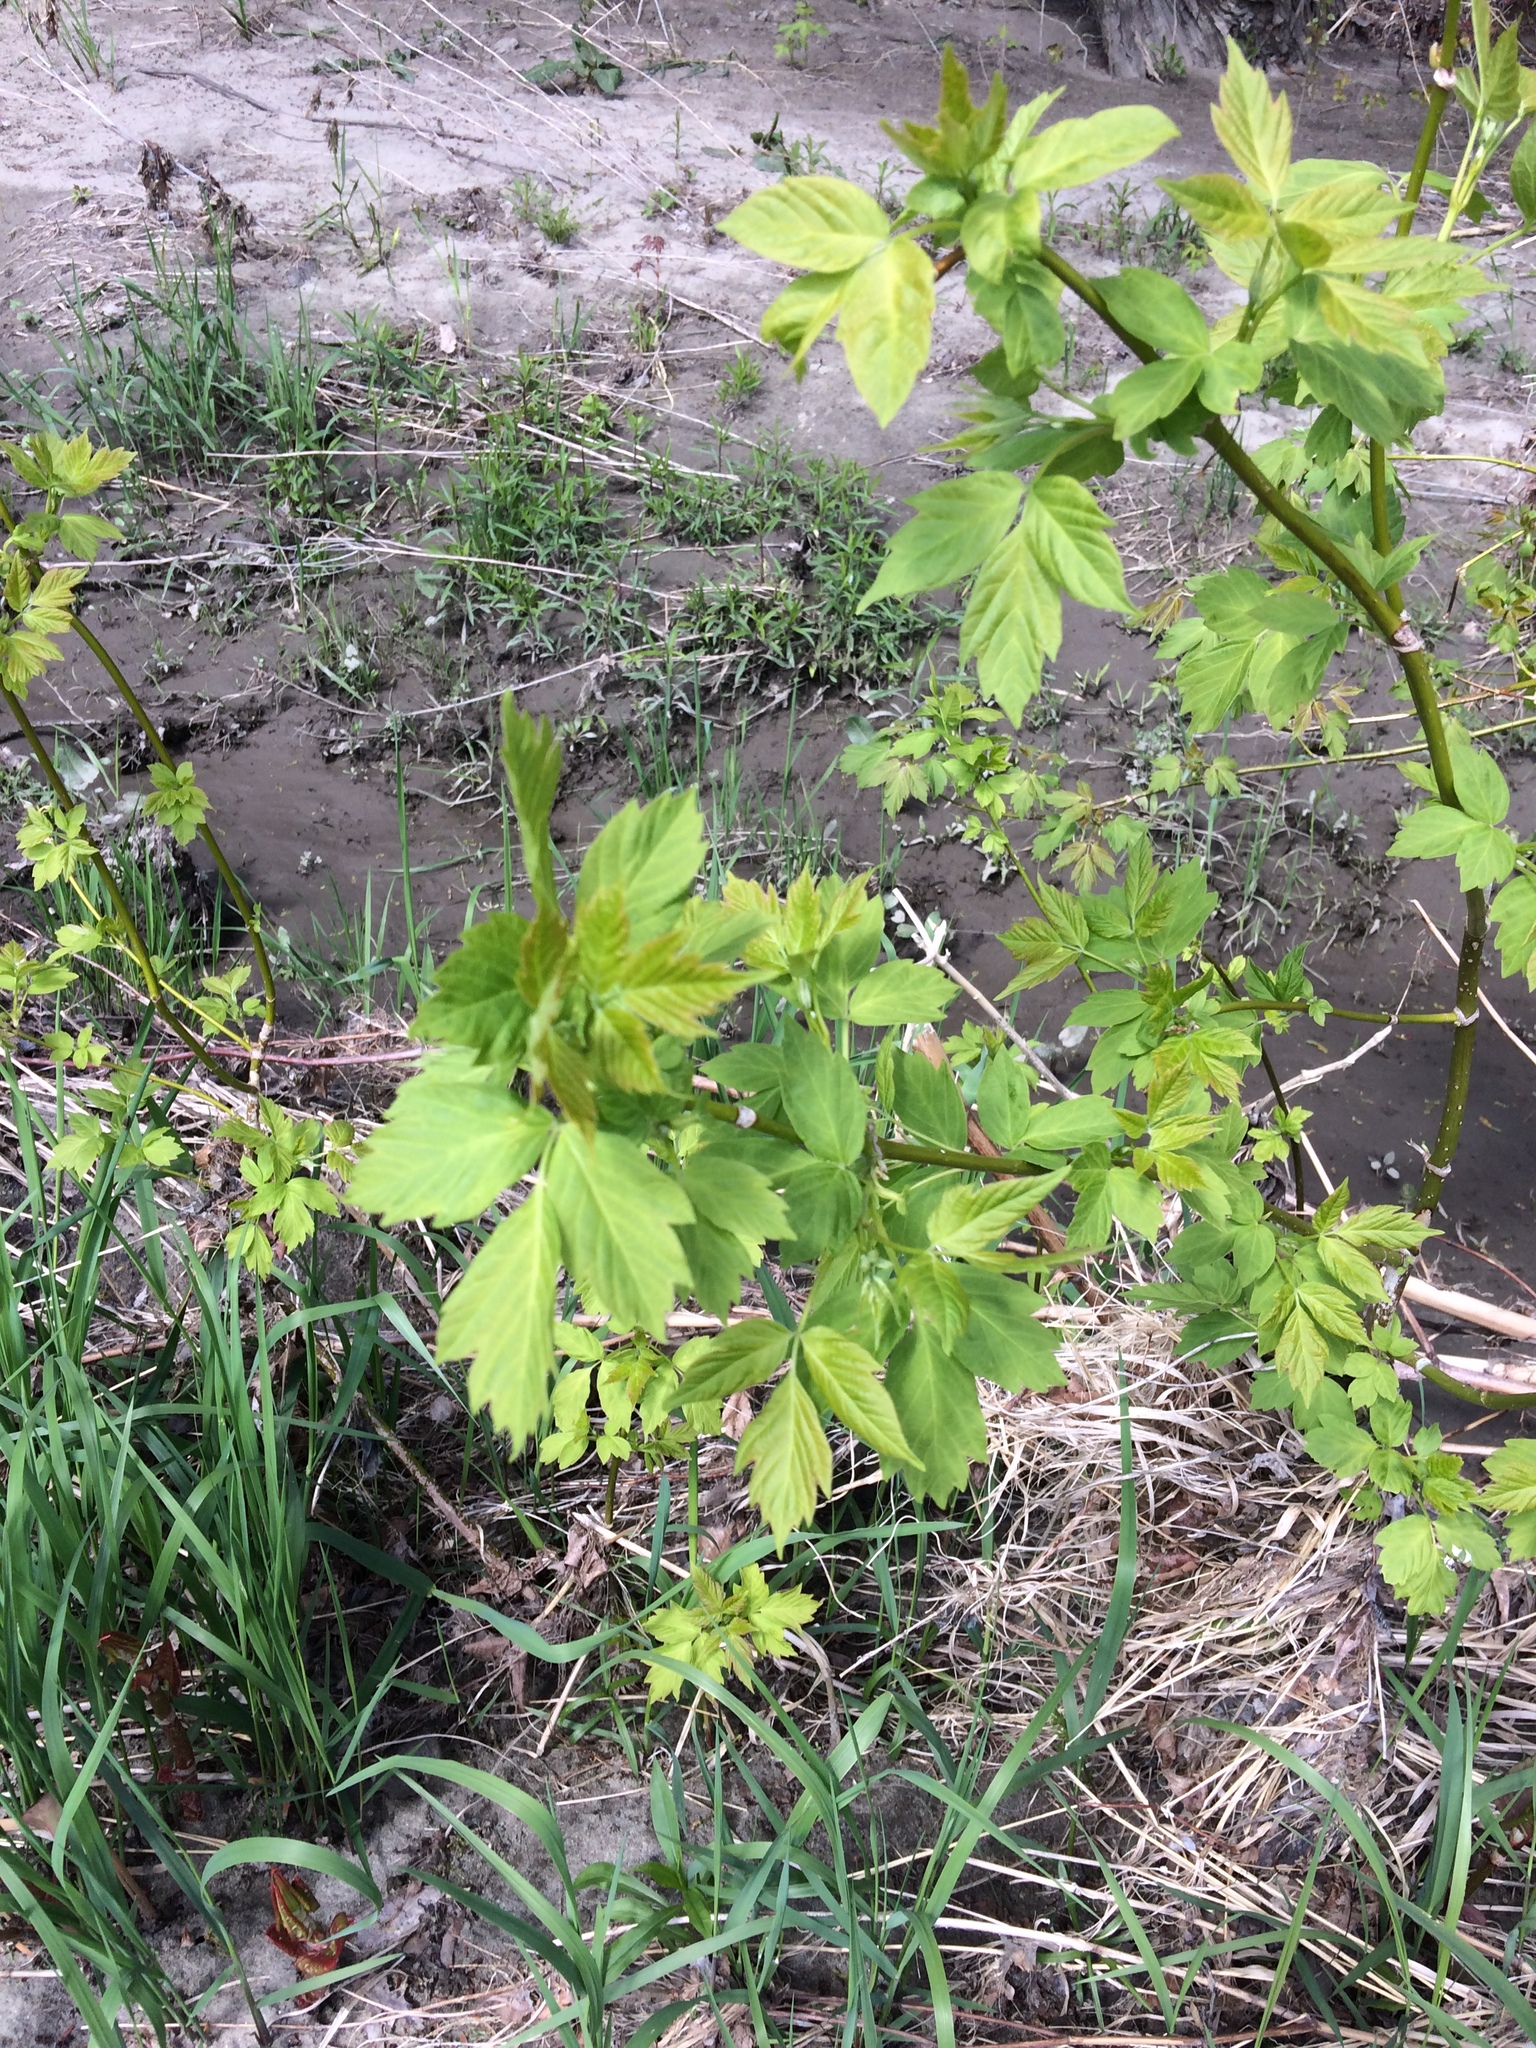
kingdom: Plantae
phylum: Tracheophyta
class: Magnoliopsida
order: Sapindales
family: Sapindaceae
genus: Acer
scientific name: Acer negundo
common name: Ashleaf maple
